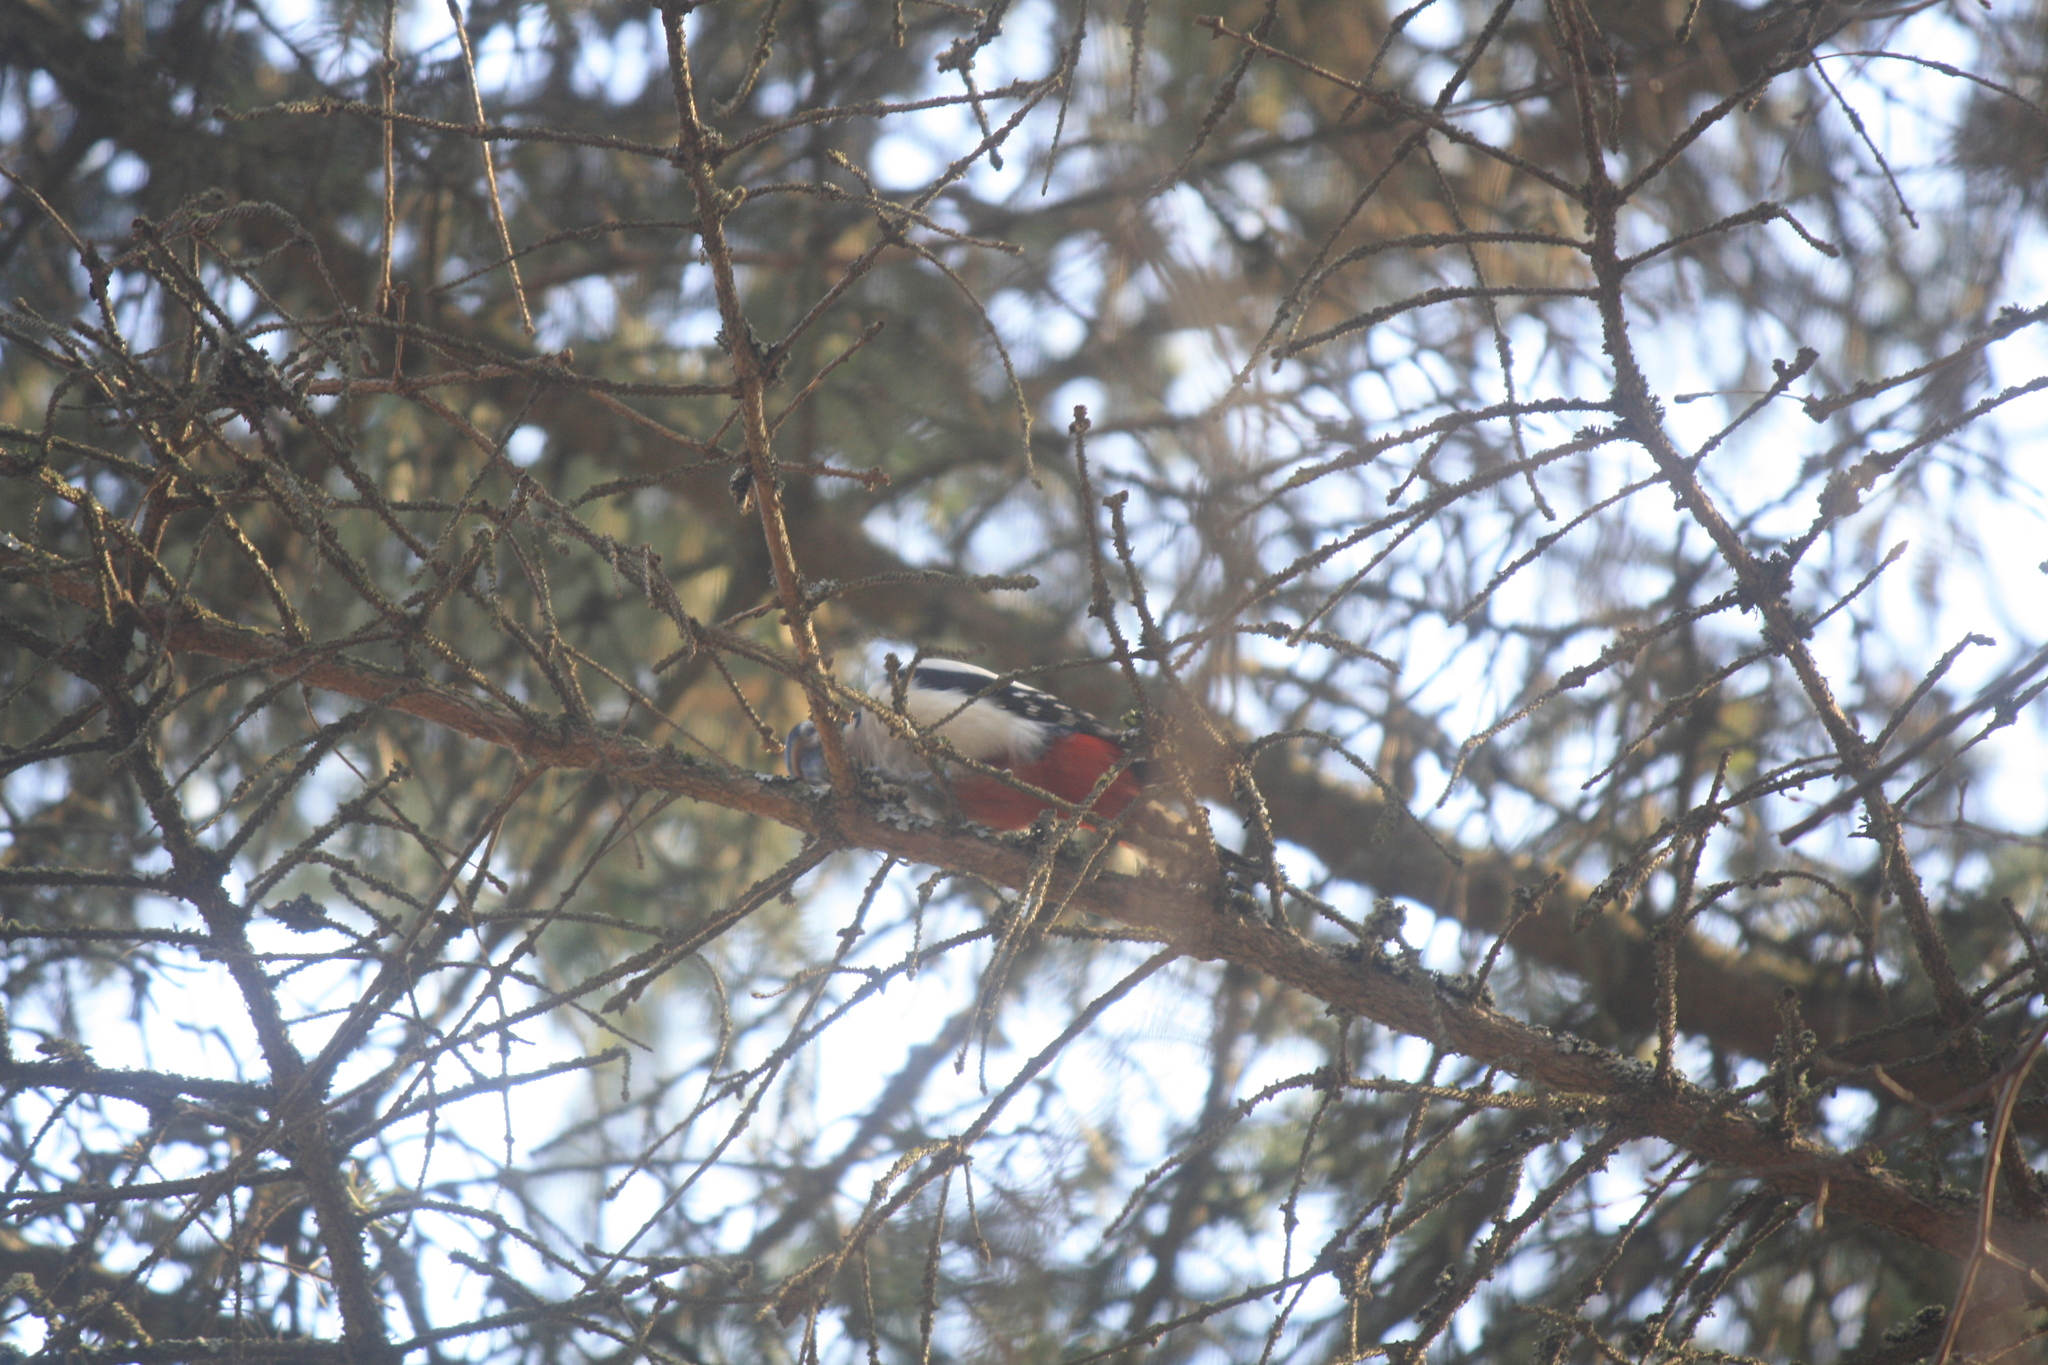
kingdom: Animalia
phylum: Chordata
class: Aves
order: Piciformes
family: Picidae
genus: Dendrocopos
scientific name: Dendrocopos major
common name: Great spotted woodpecker
